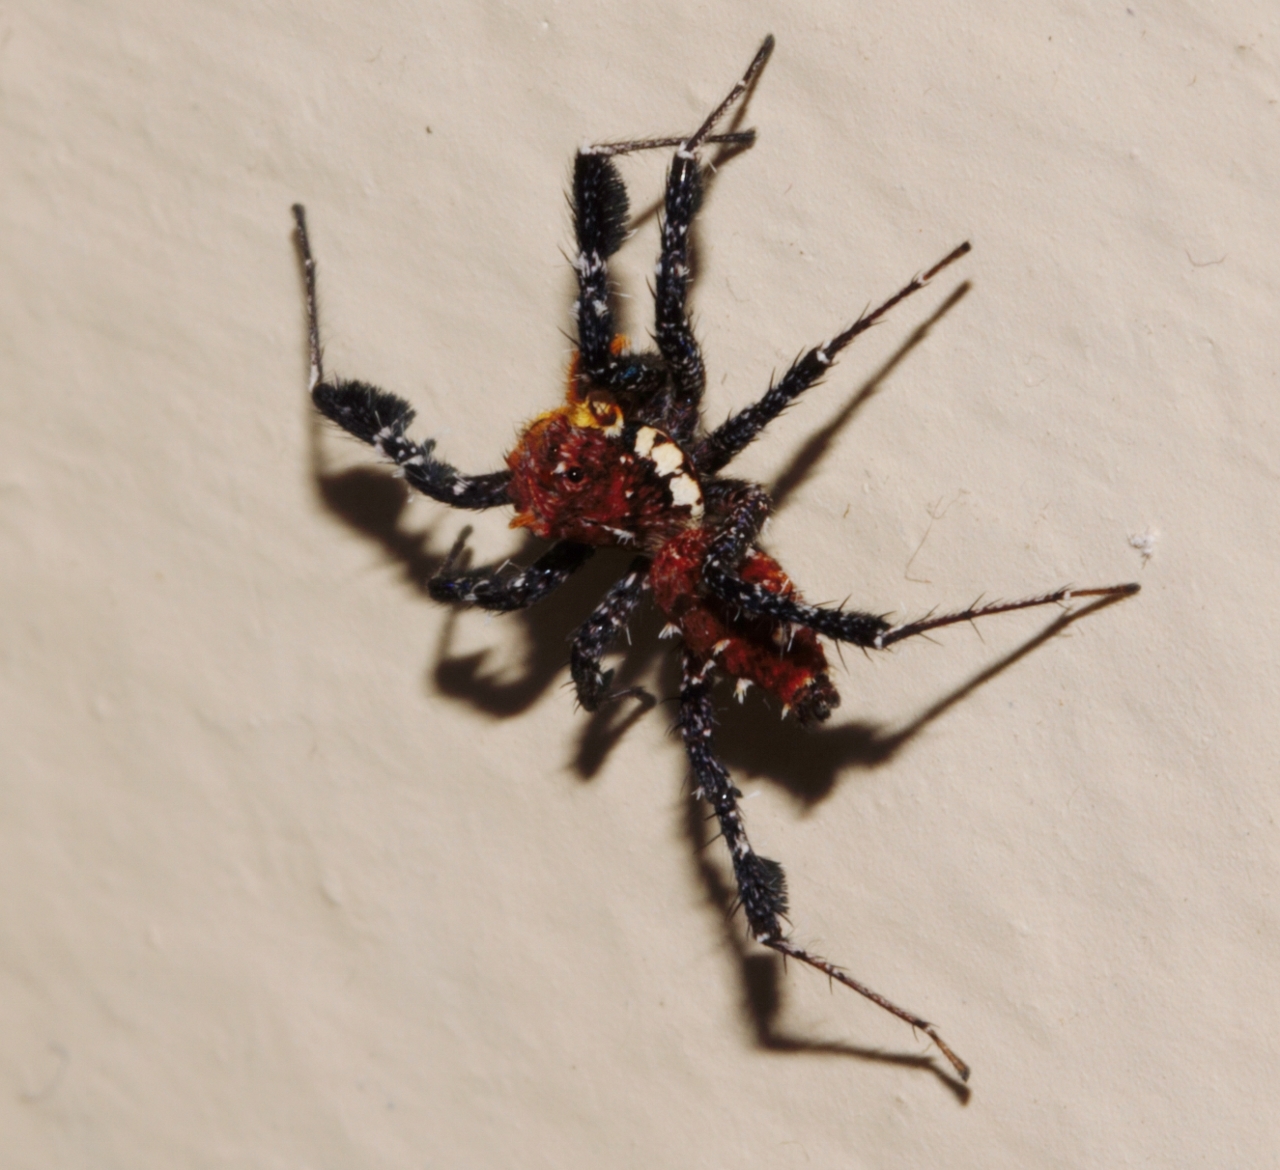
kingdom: Animalia
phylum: Arthropoda
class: Arachnida
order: Araneae
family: Salticidae
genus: Portia
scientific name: Portia schultzi
